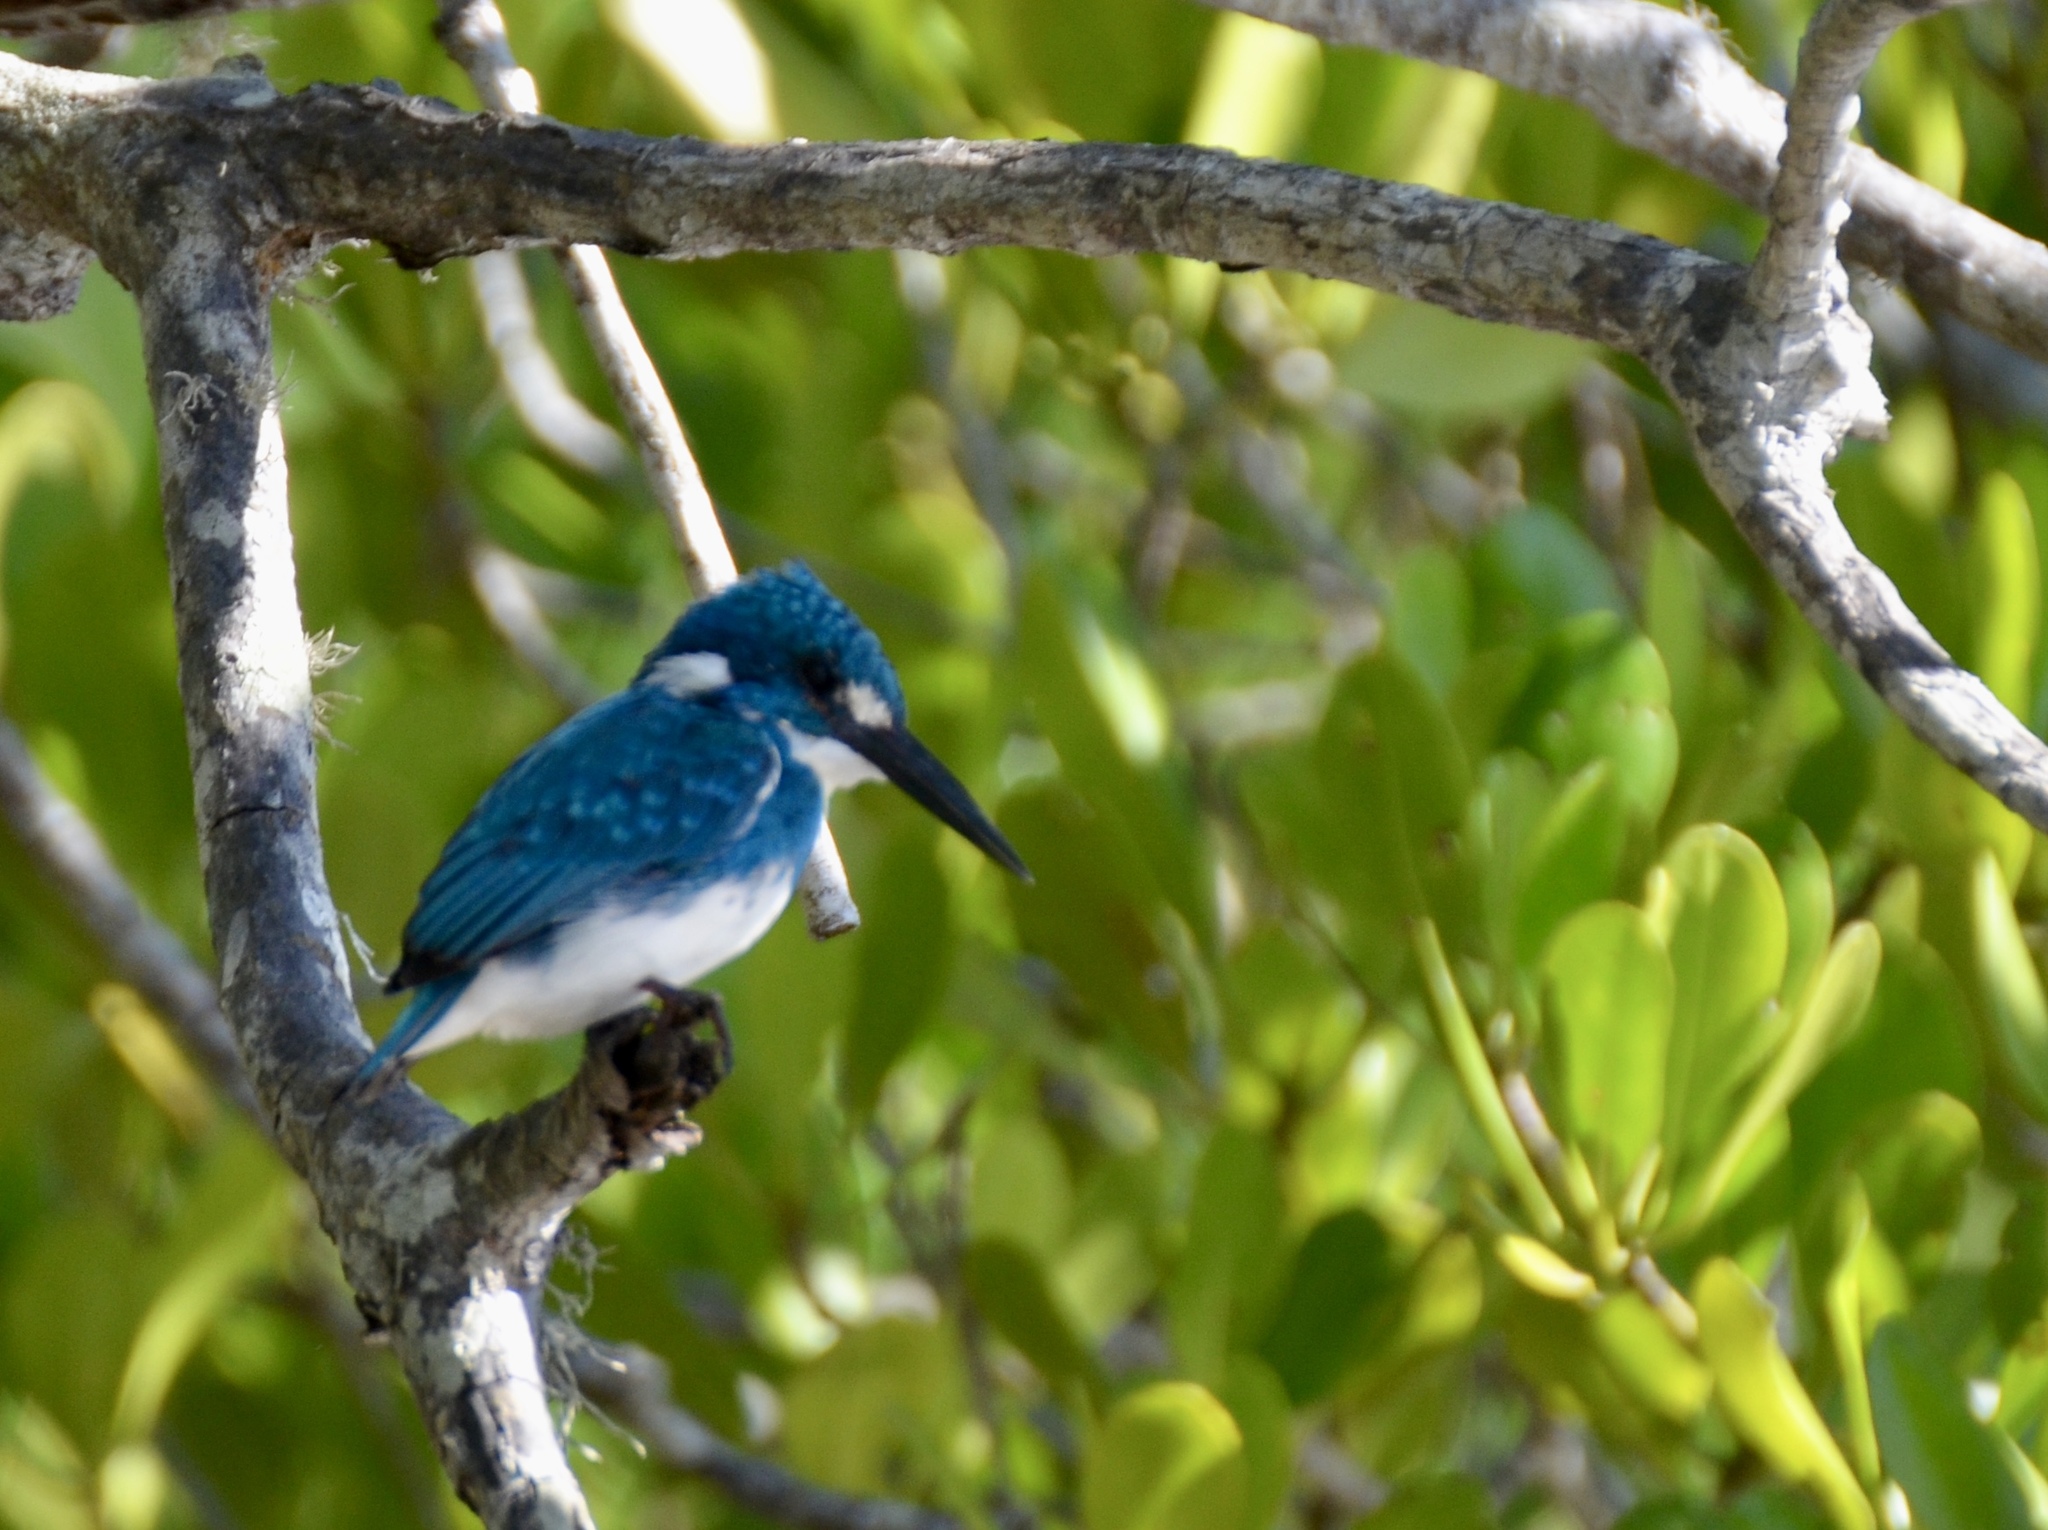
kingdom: Animalia
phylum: Chordata
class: Aves
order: Coraciiformes
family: Alcedinidae
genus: Alcedo
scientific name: Alcedo coerulescens
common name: Cerulean kingfisher
